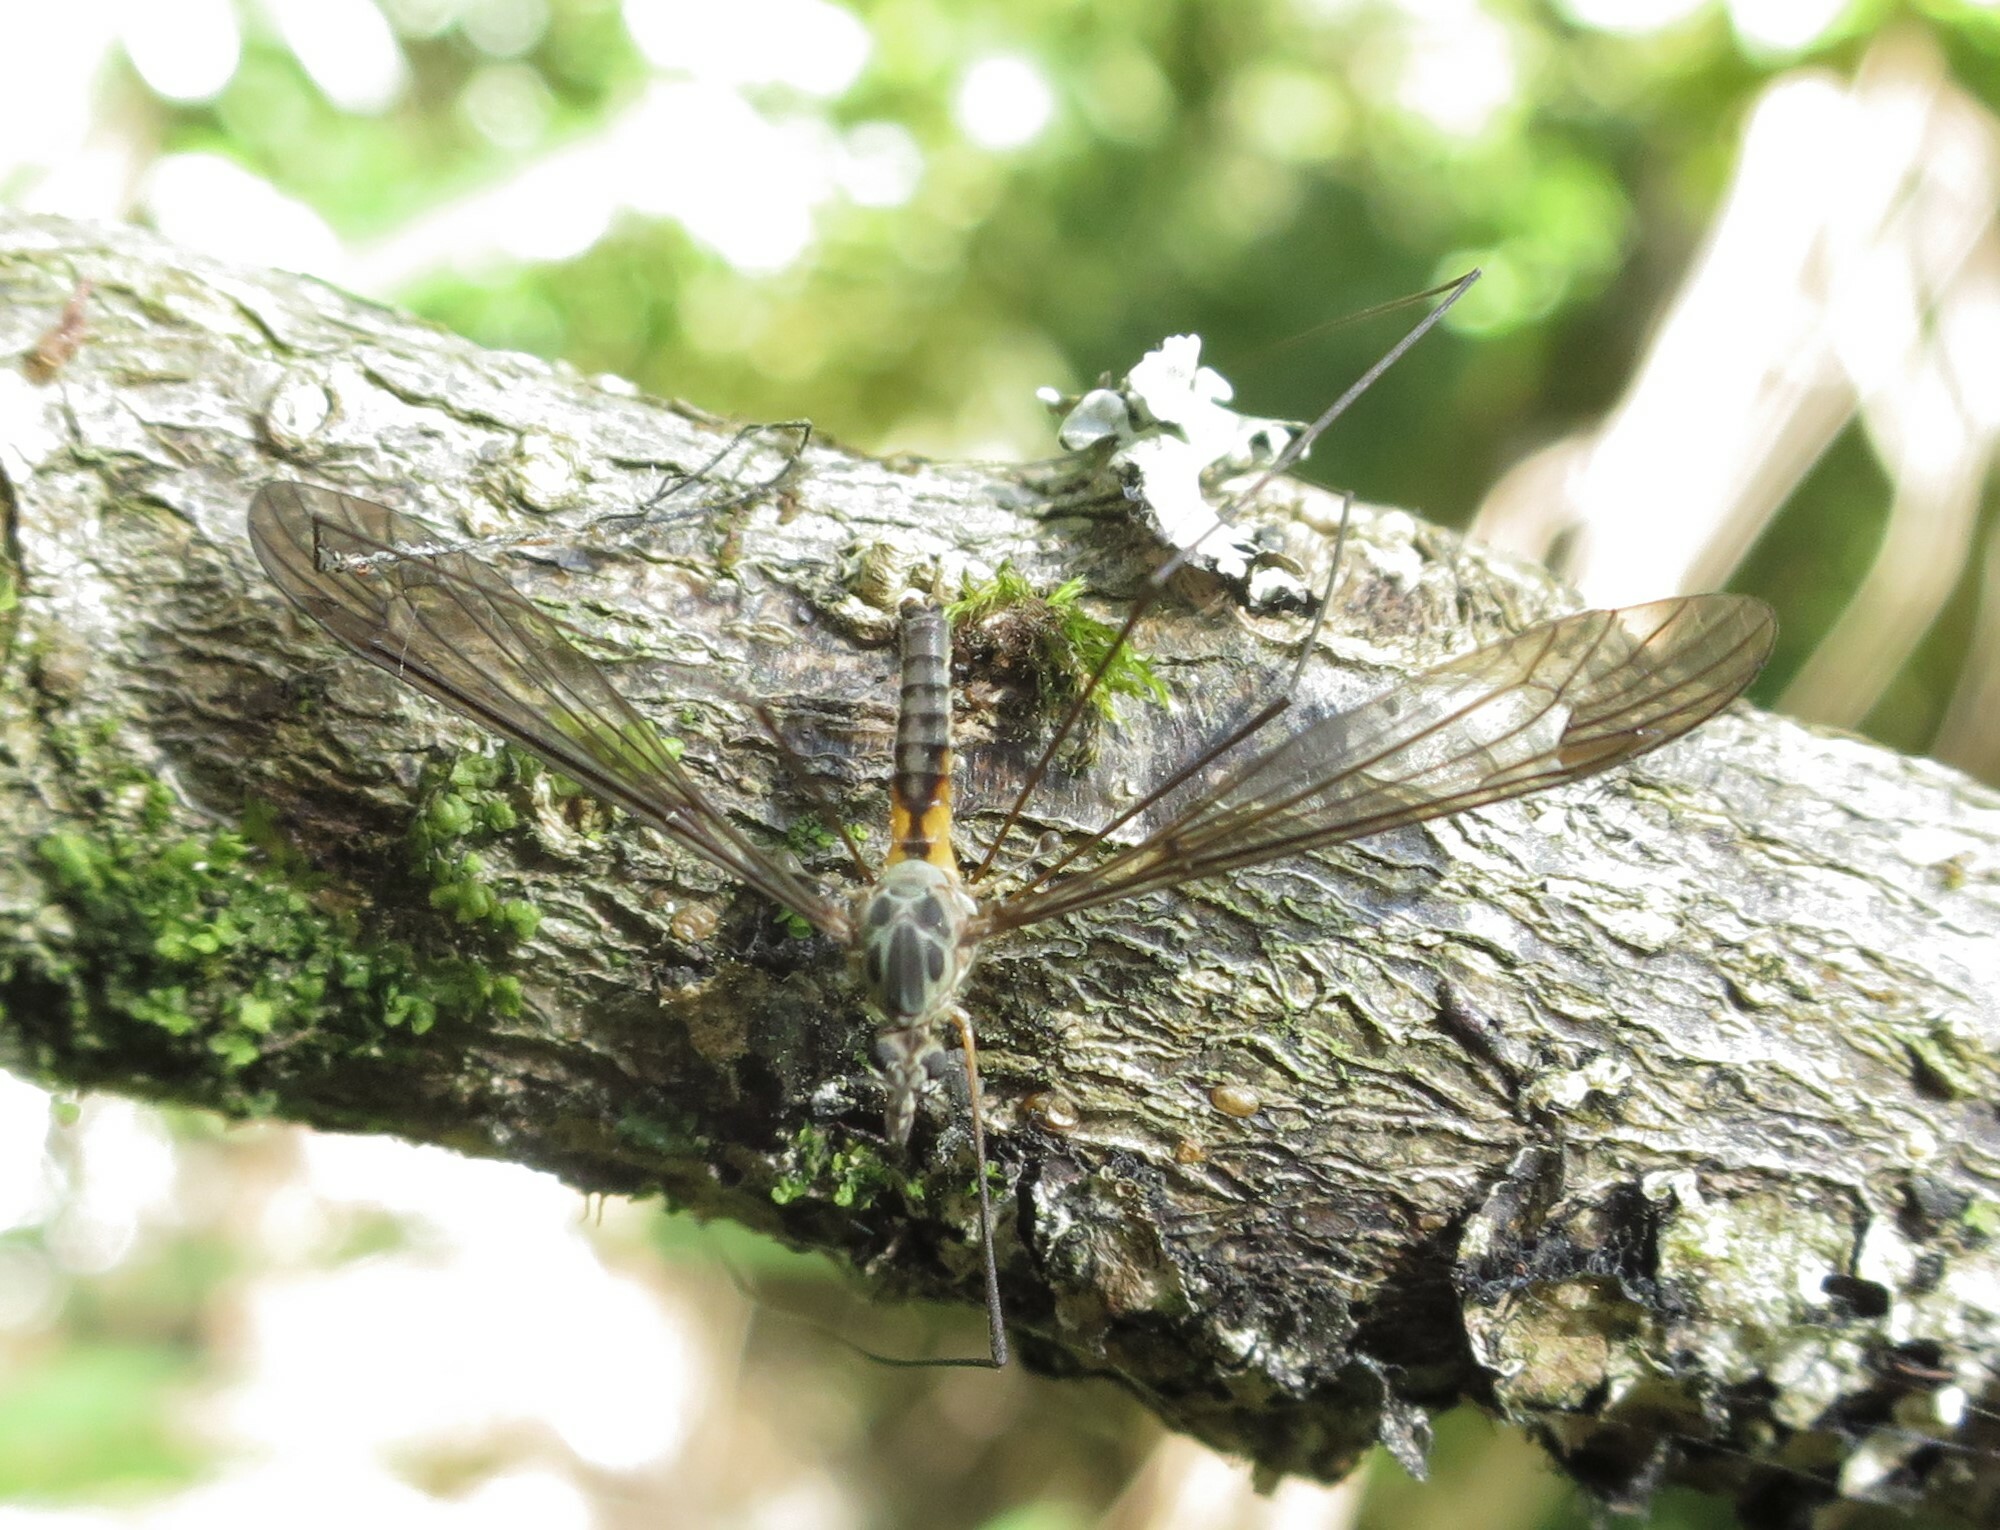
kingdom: Animalia
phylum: Arthropoda
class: Insecta
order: Diptera
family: Tipulidae
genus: Leptotarsus
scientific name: Leptotarsus rufibasis
